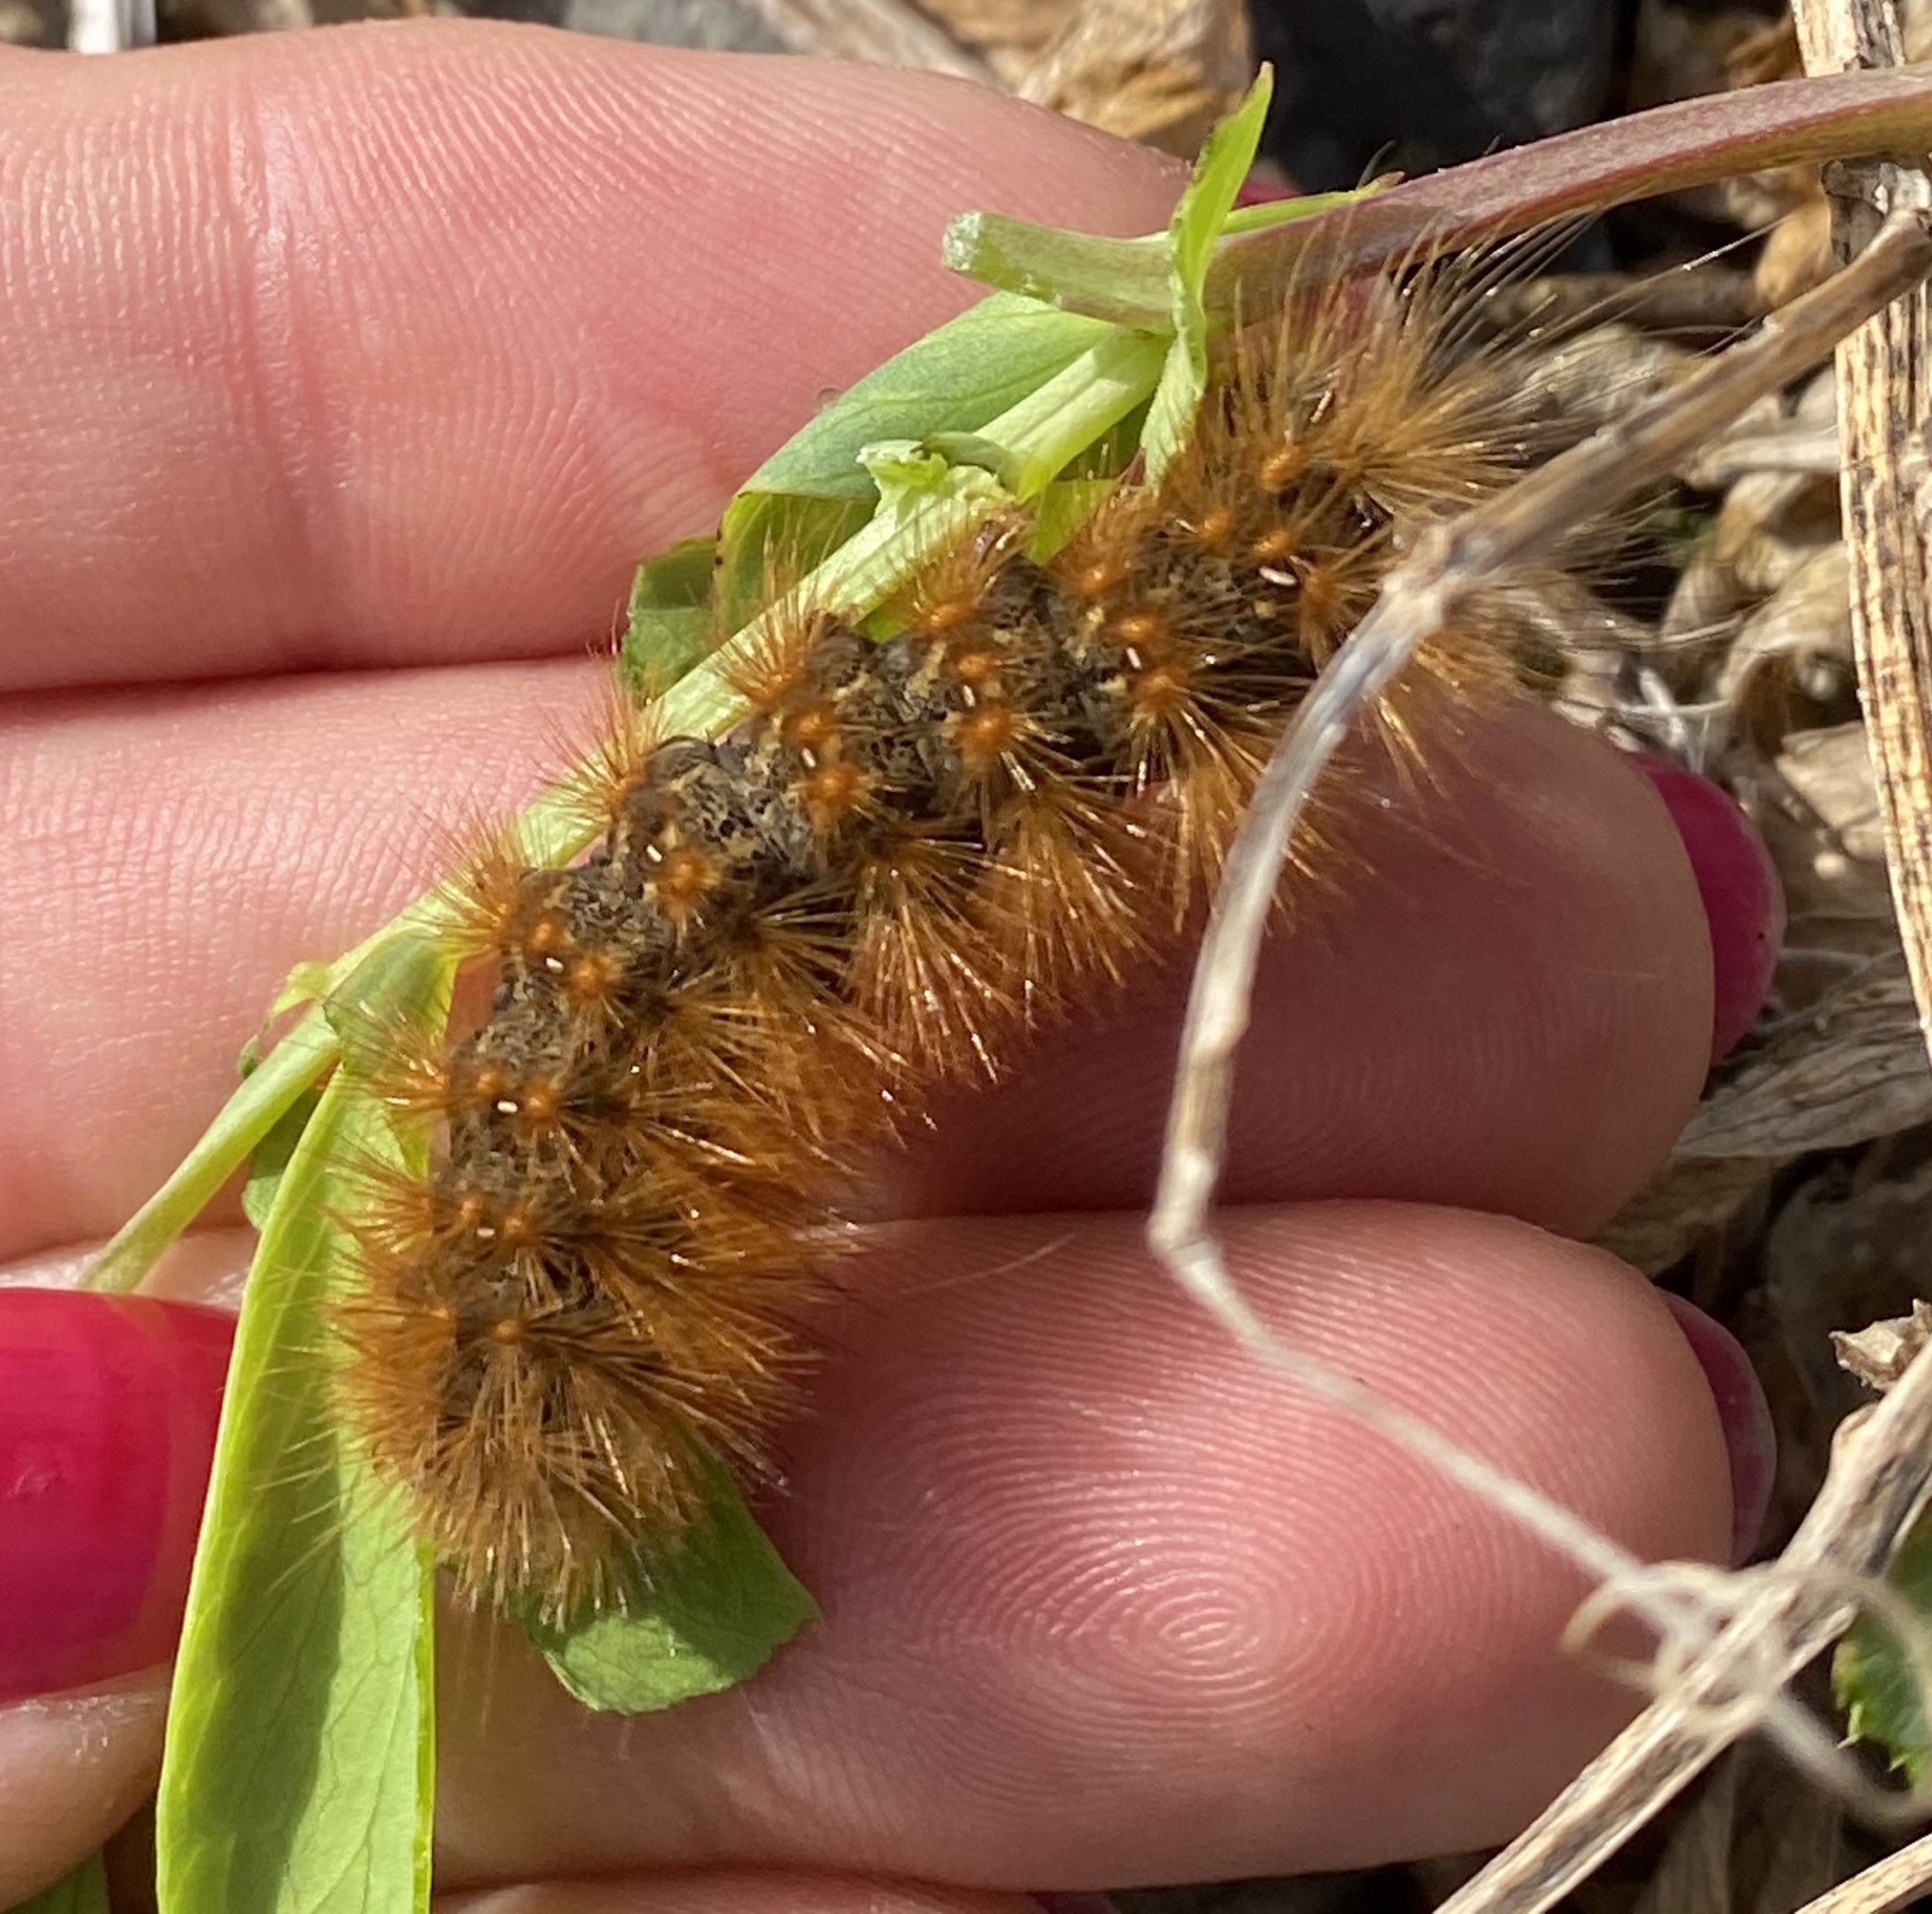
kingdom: Animalia
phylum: Arthropoda
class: Insecta
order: Lepidoptera
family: Erebidae
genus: Estigmene
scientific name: Estigmene acrea
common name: Salt marsh moth
